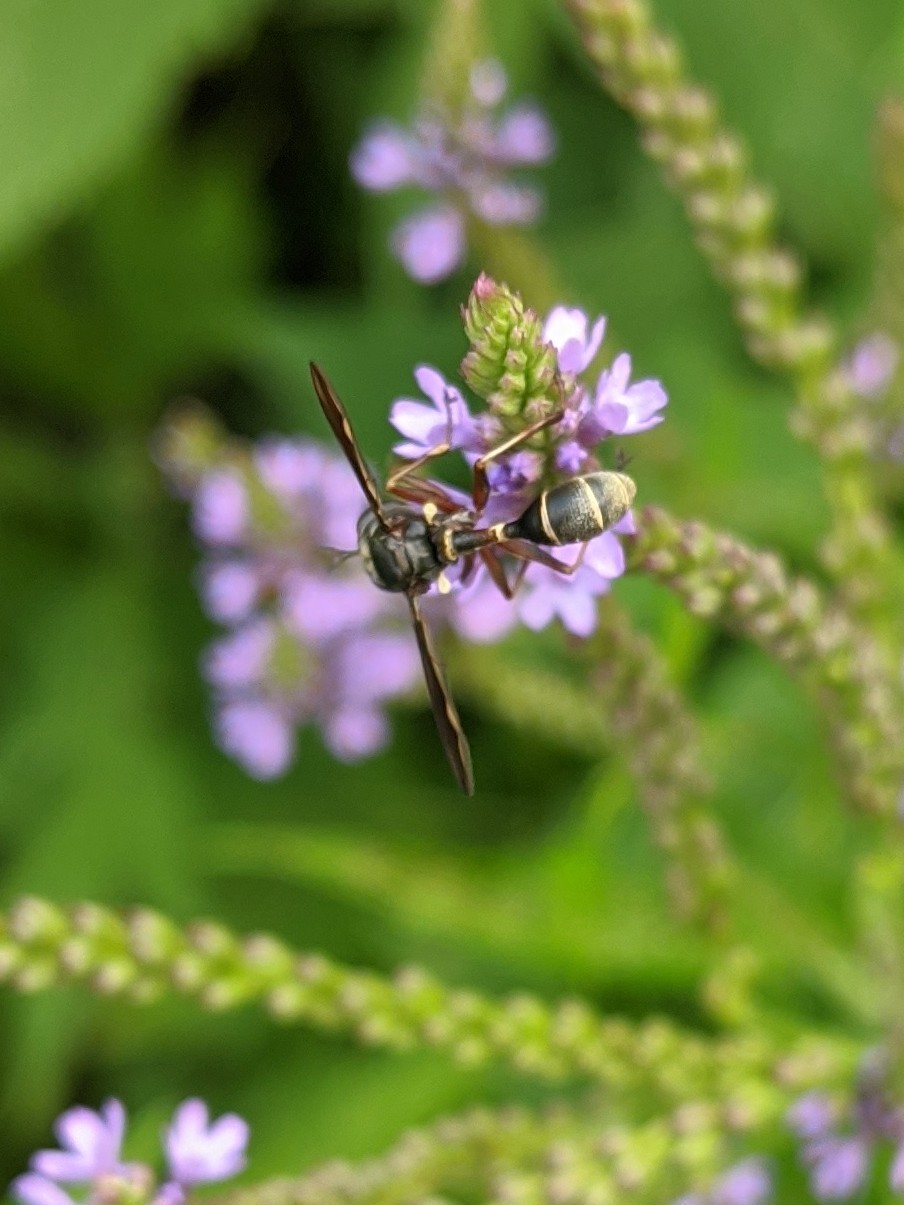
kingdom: Animalia
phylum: Arthropoda
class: Insecta
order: Diptera
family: Conopidae
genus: Physocephala
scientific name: Physocephala furcillata
